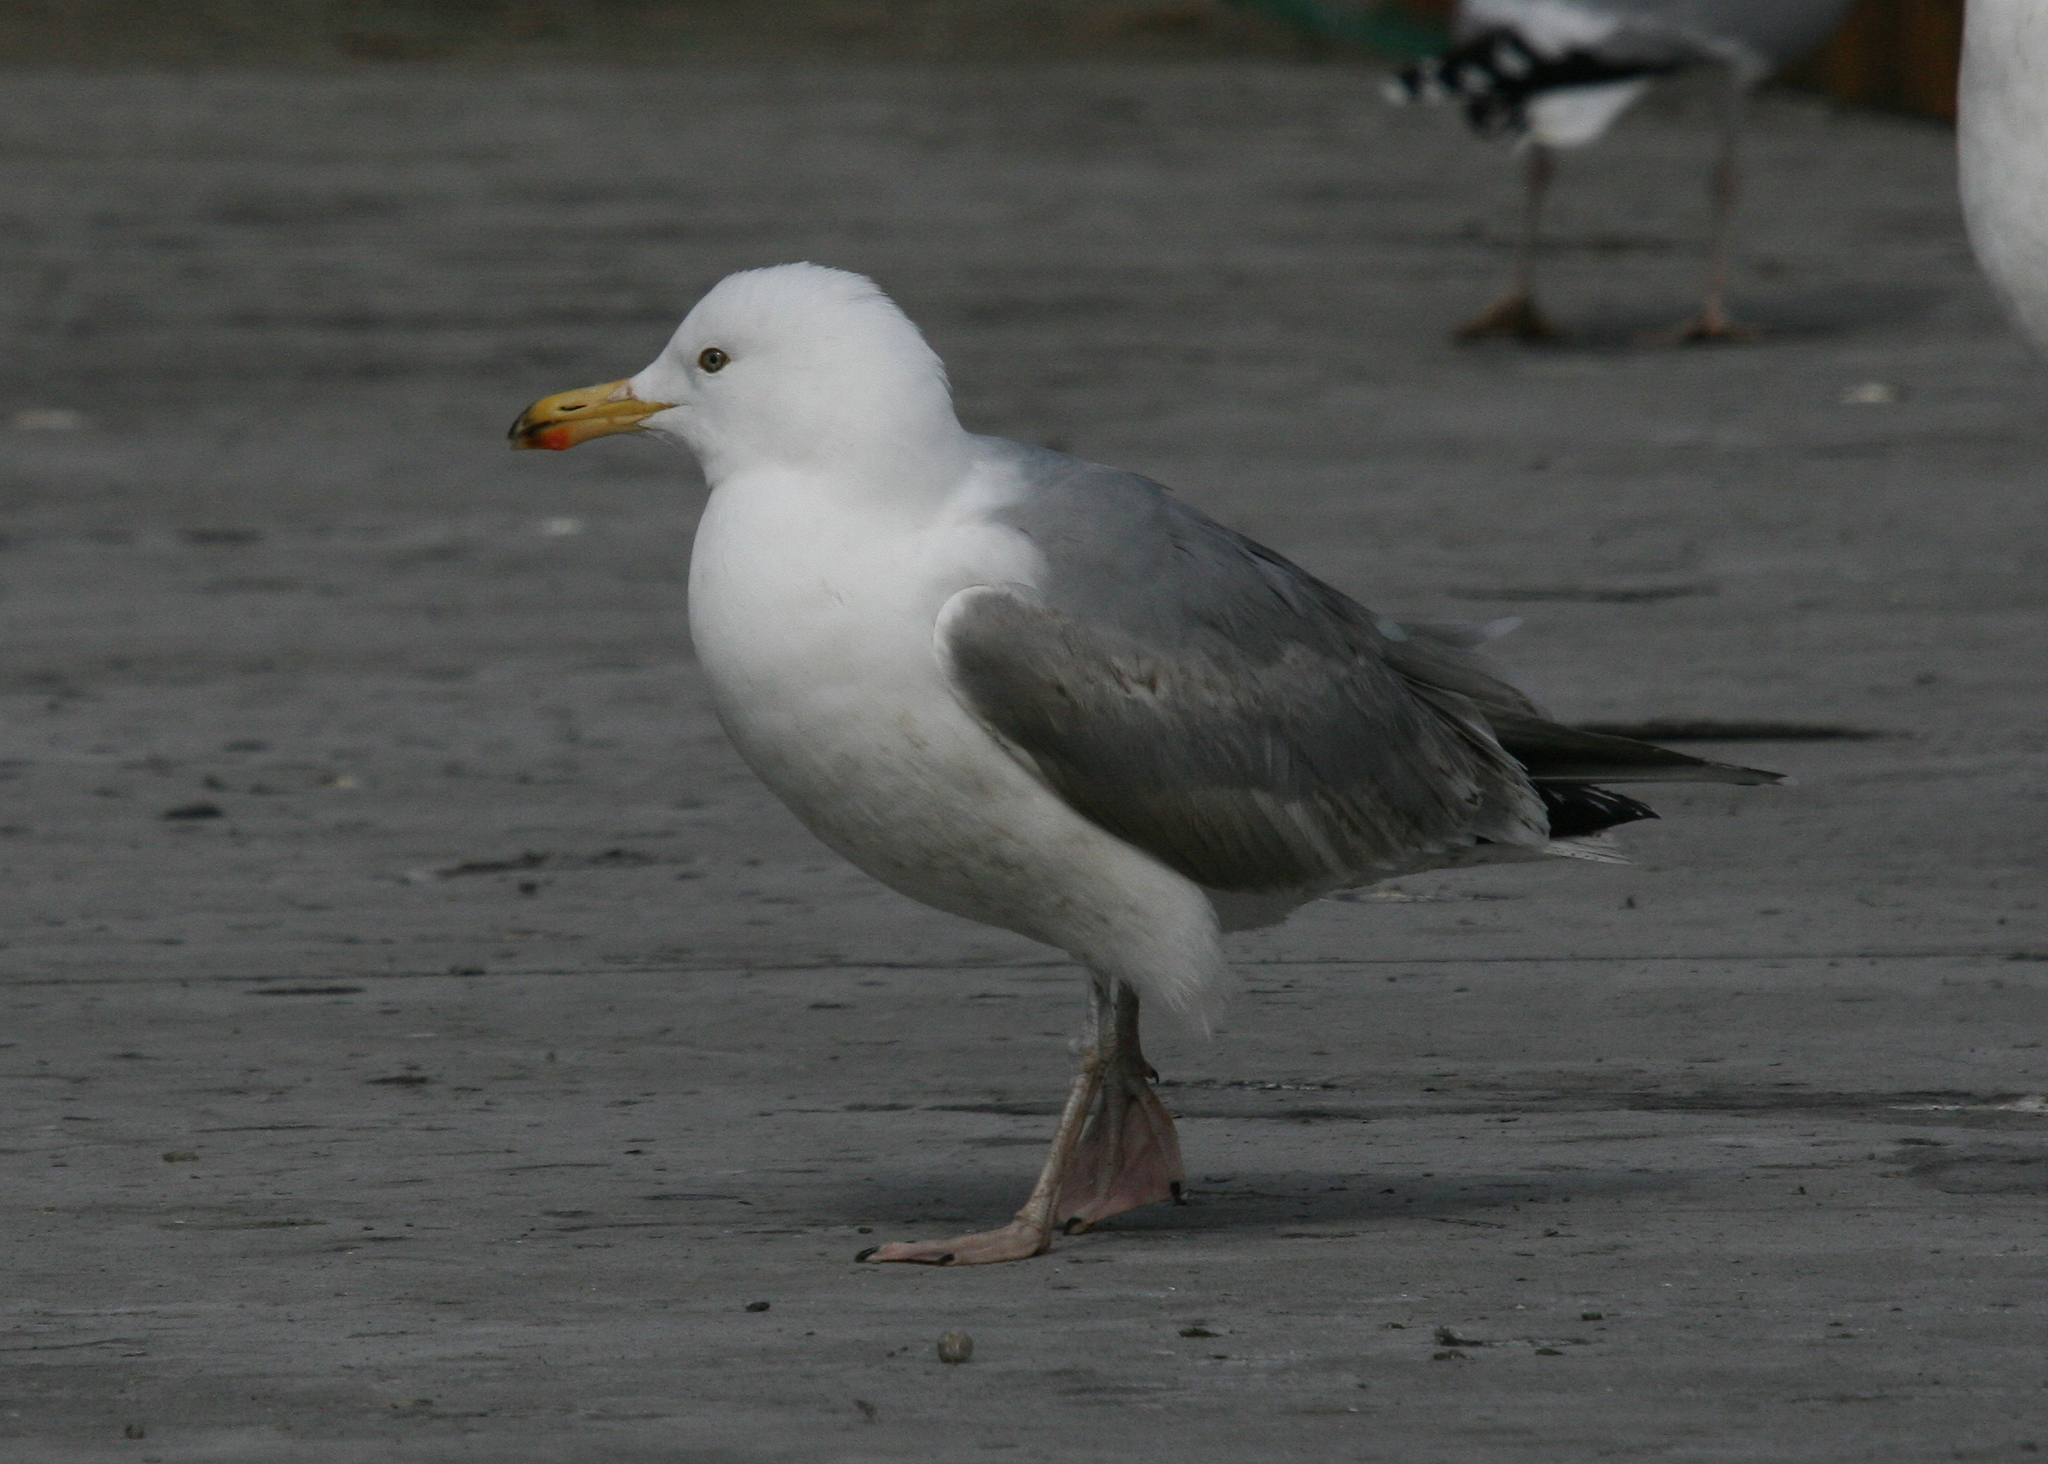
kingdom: Animalia
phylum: Chordata
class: Aves
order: Charadriiformes
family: Laridae
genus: Larus
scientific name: Larus argentatus
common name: Herring gull
